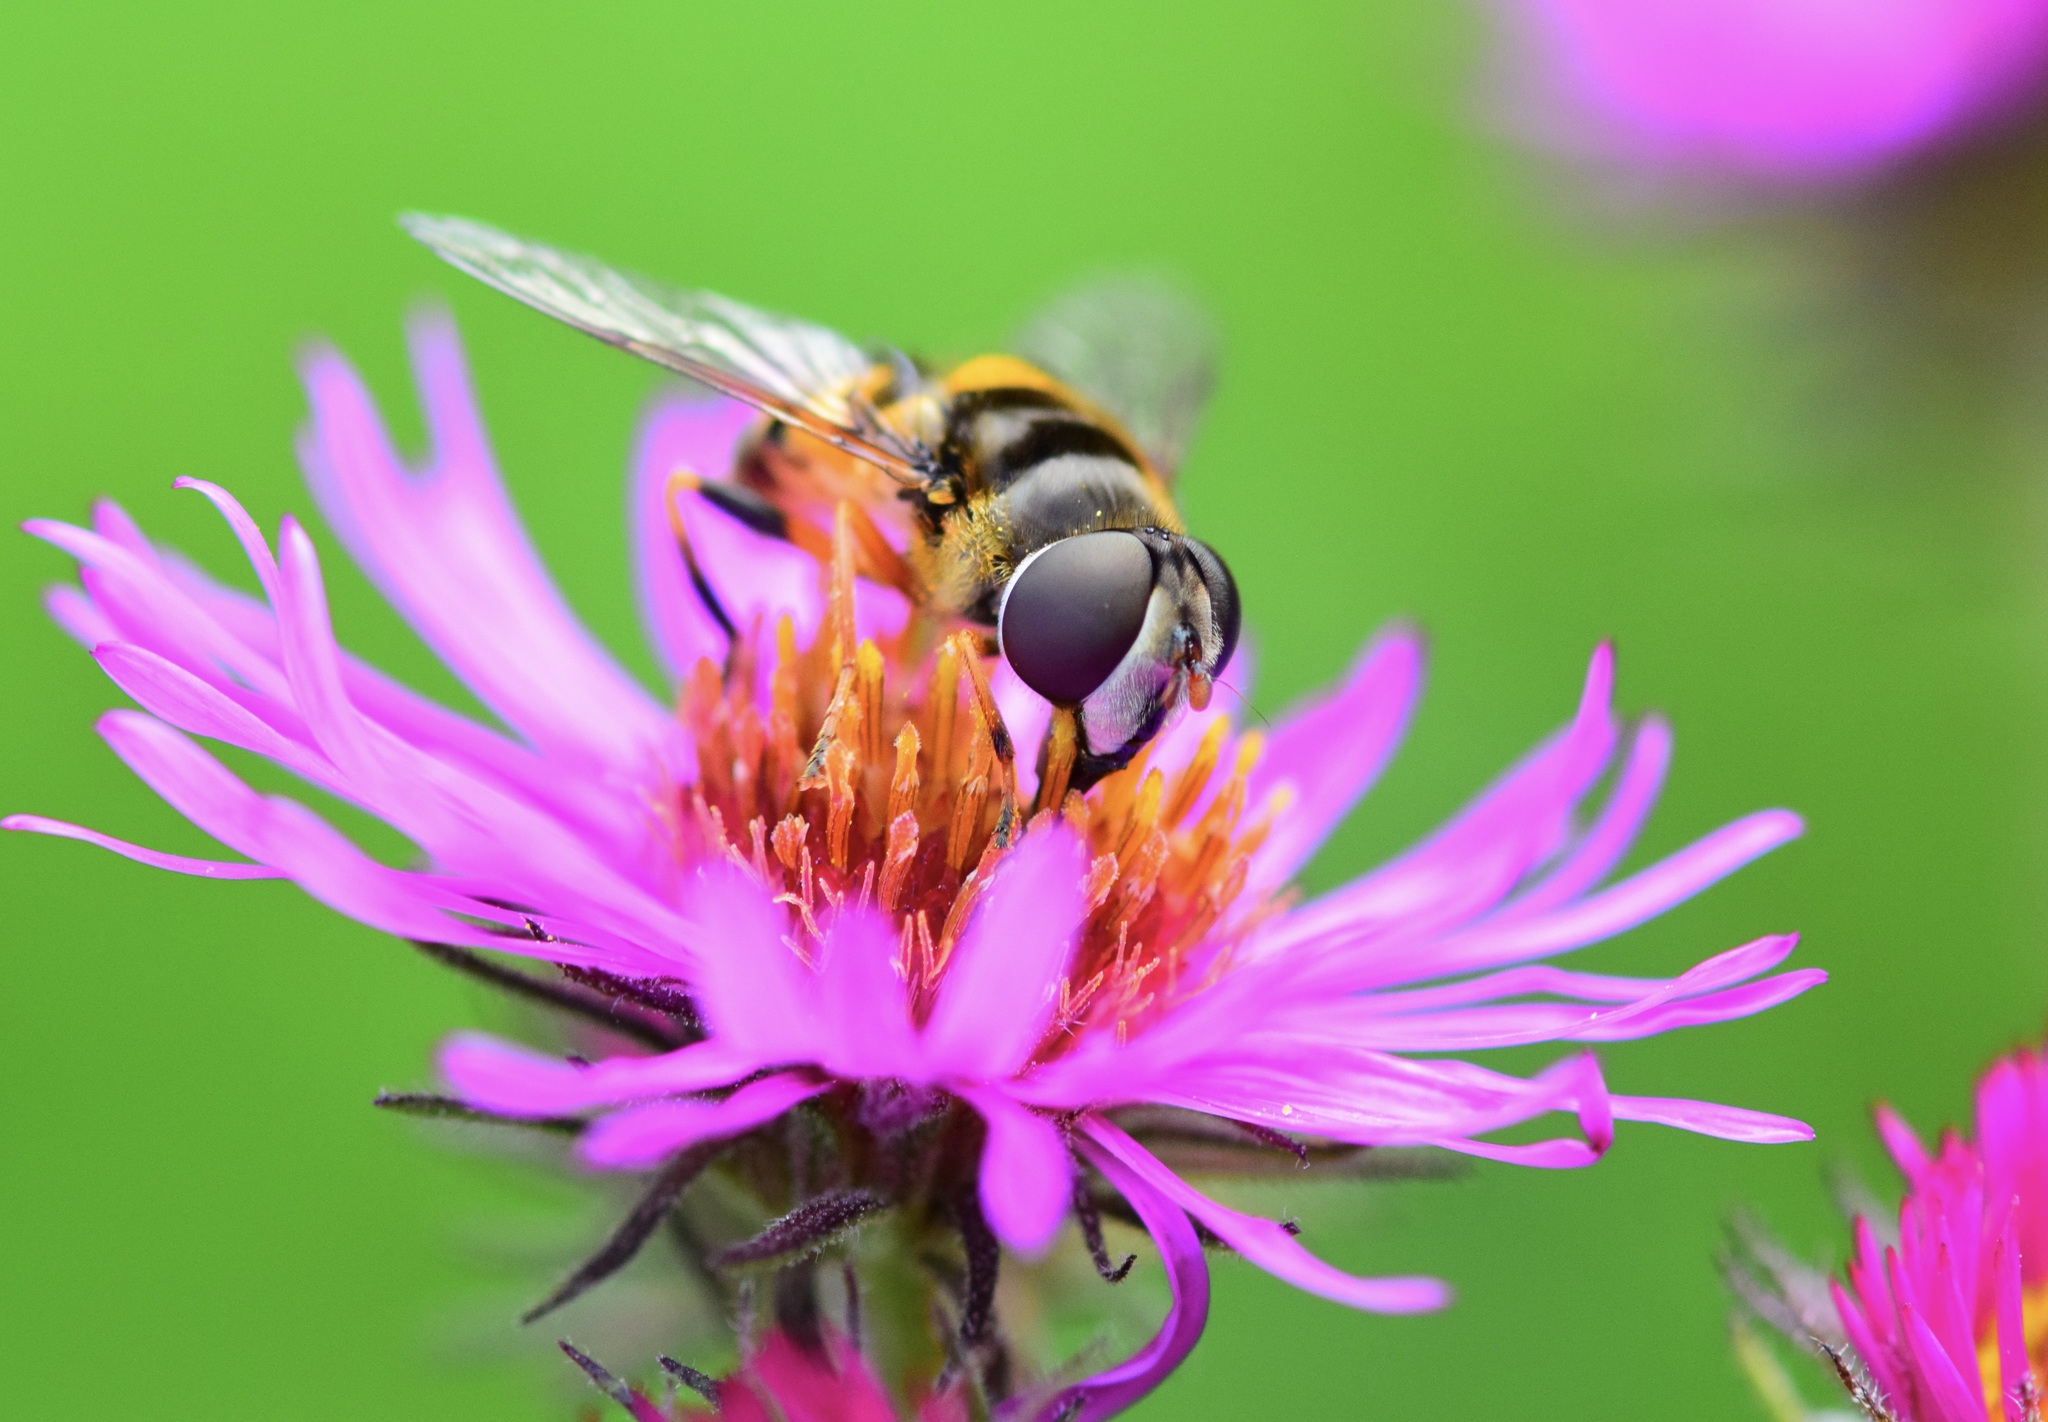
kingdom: Animalia
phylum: Arthropoda
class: Insecta
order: Diptera
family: Syrphidae
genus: Eristalis
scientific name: Eristalis transversa
